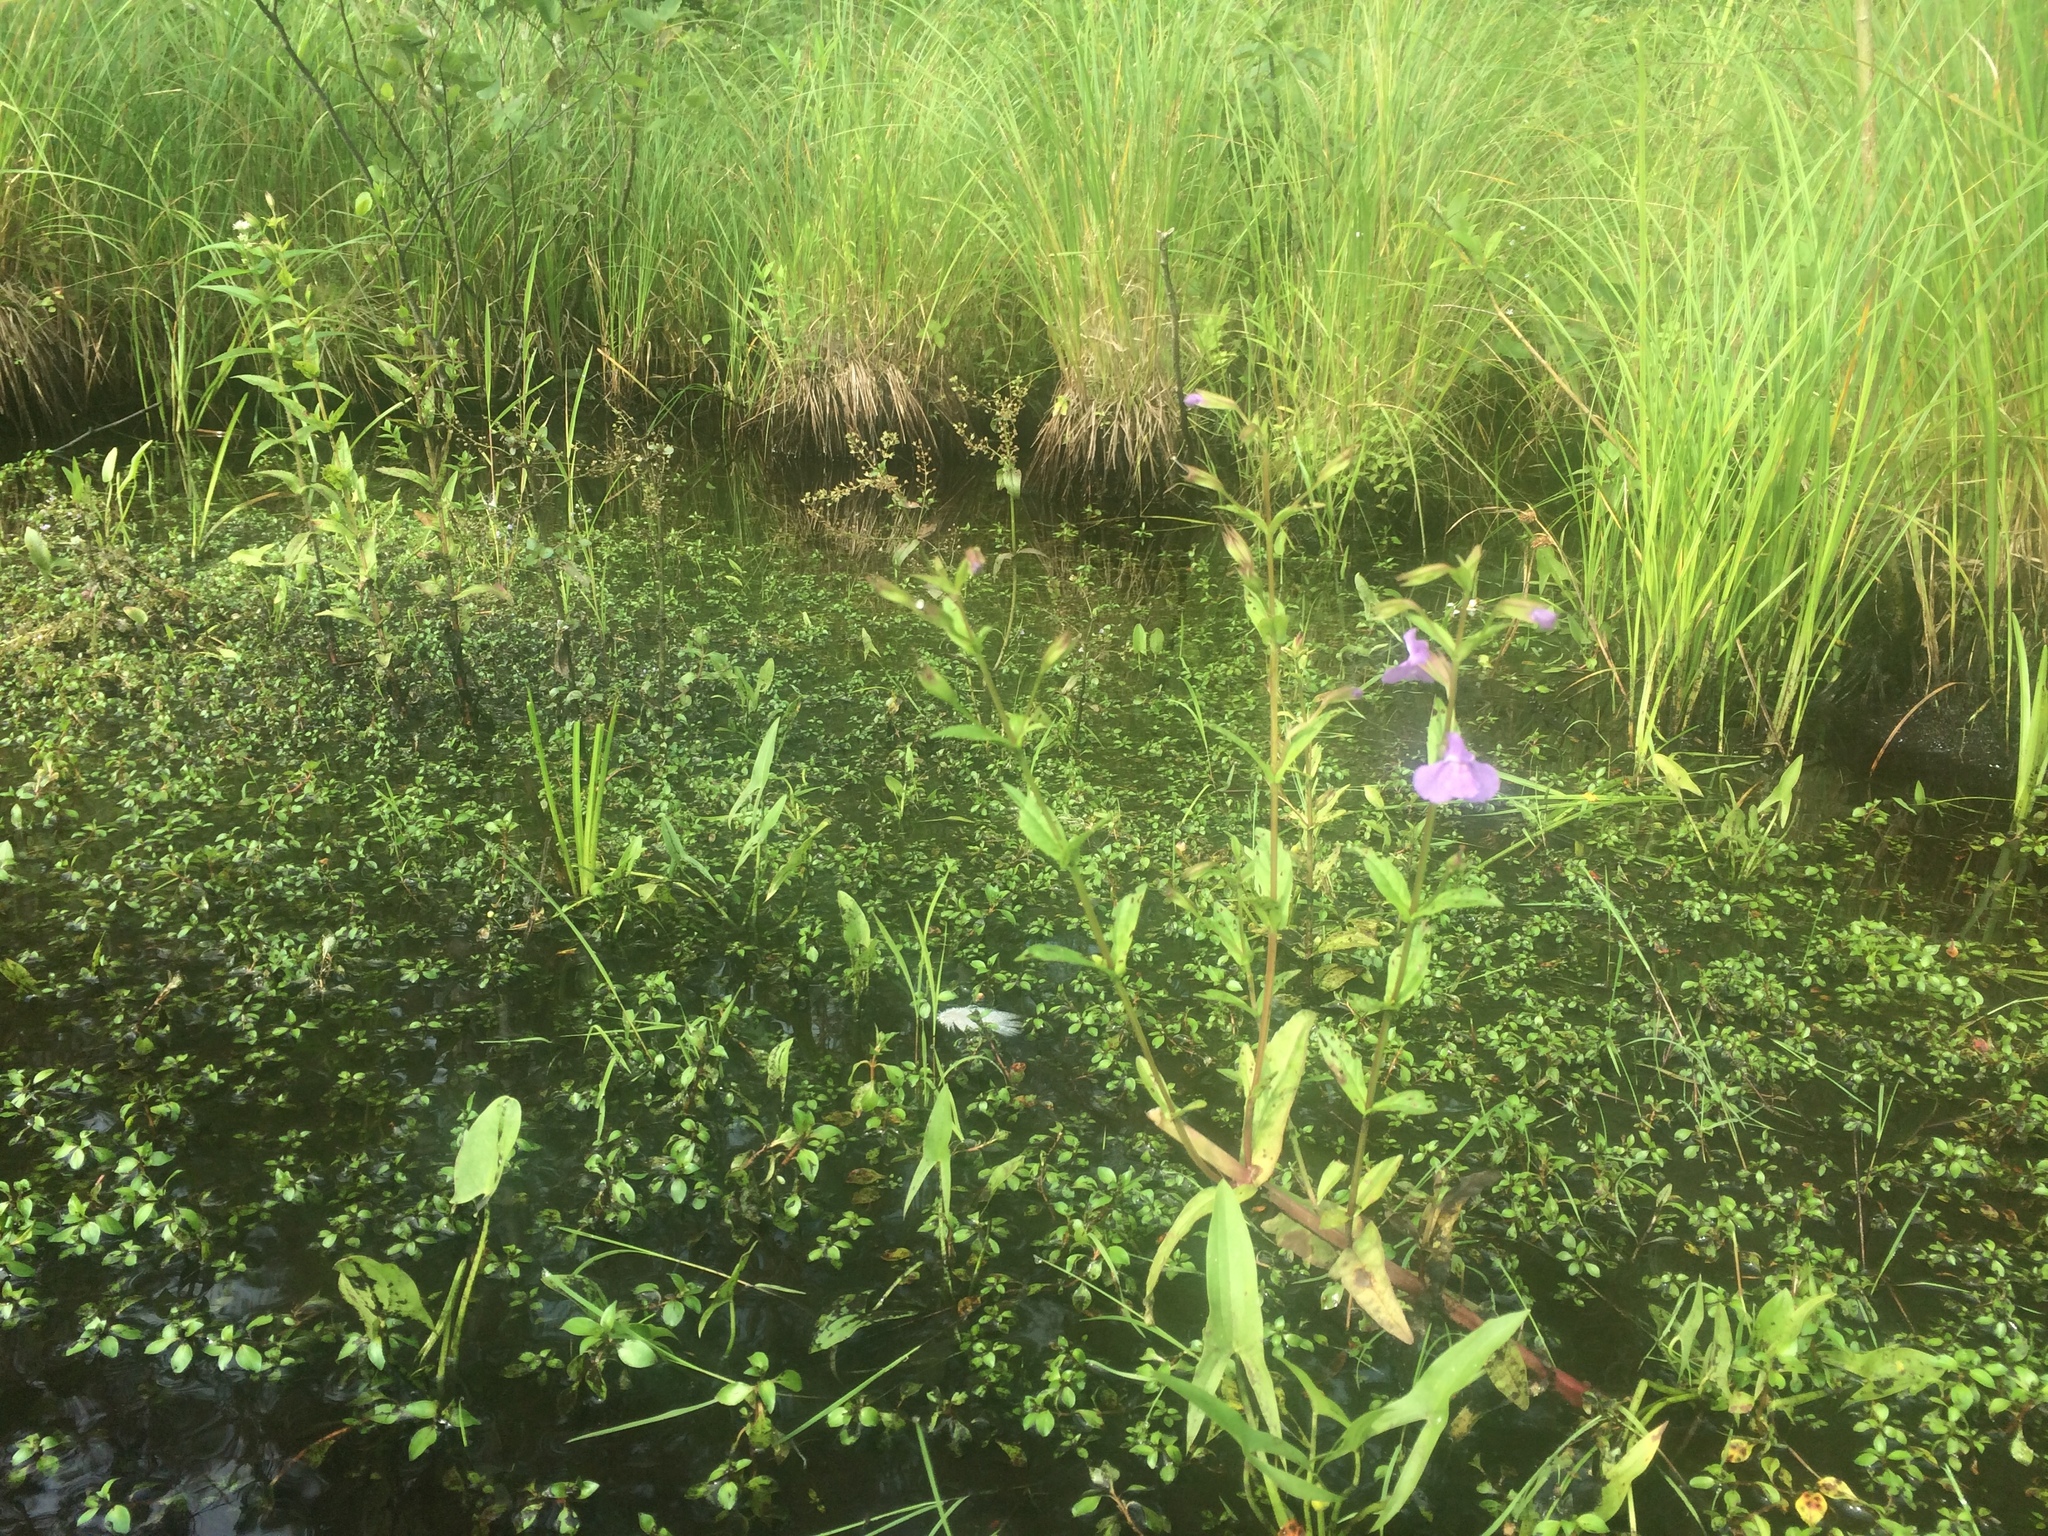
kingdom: Plantae
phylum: Tracheophyta
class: Magnoliopsida
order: Lamiales
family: Phrymaceae
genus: Mimulus
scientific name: Mimulus ringens
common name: Allegheny monkeyflower
